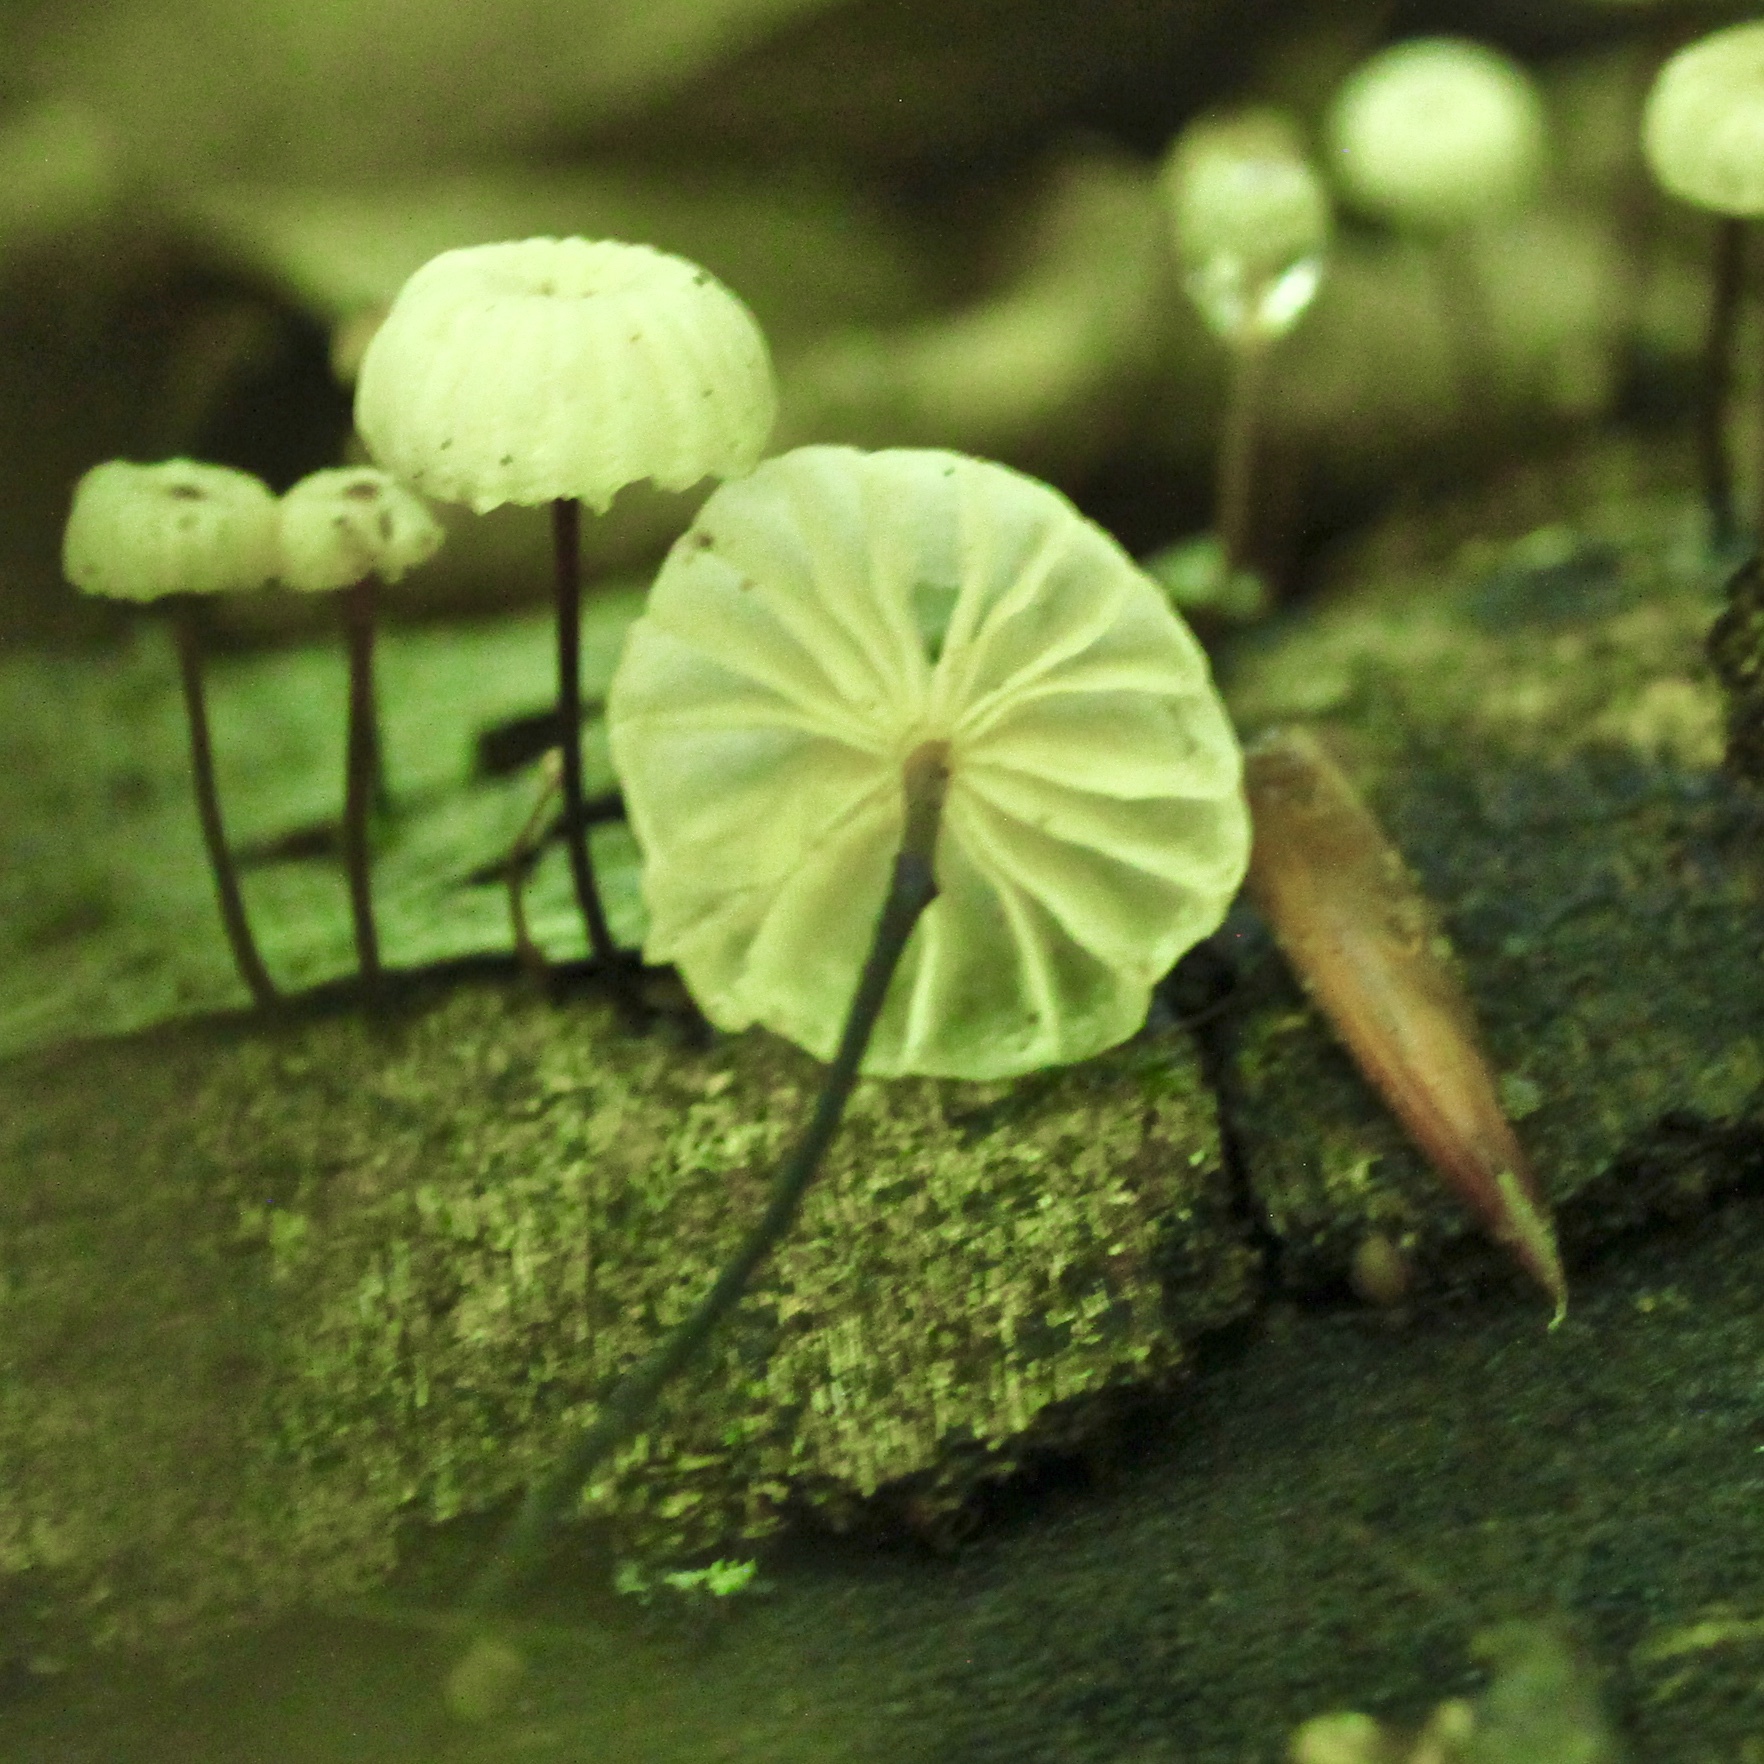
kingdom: Fungi
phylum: Basidiomycota
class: Agaricomycetes
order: Agaricales
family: Marasmiaceae
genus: Marasmius
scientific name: Marasmius rotula
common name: Collared parachute
